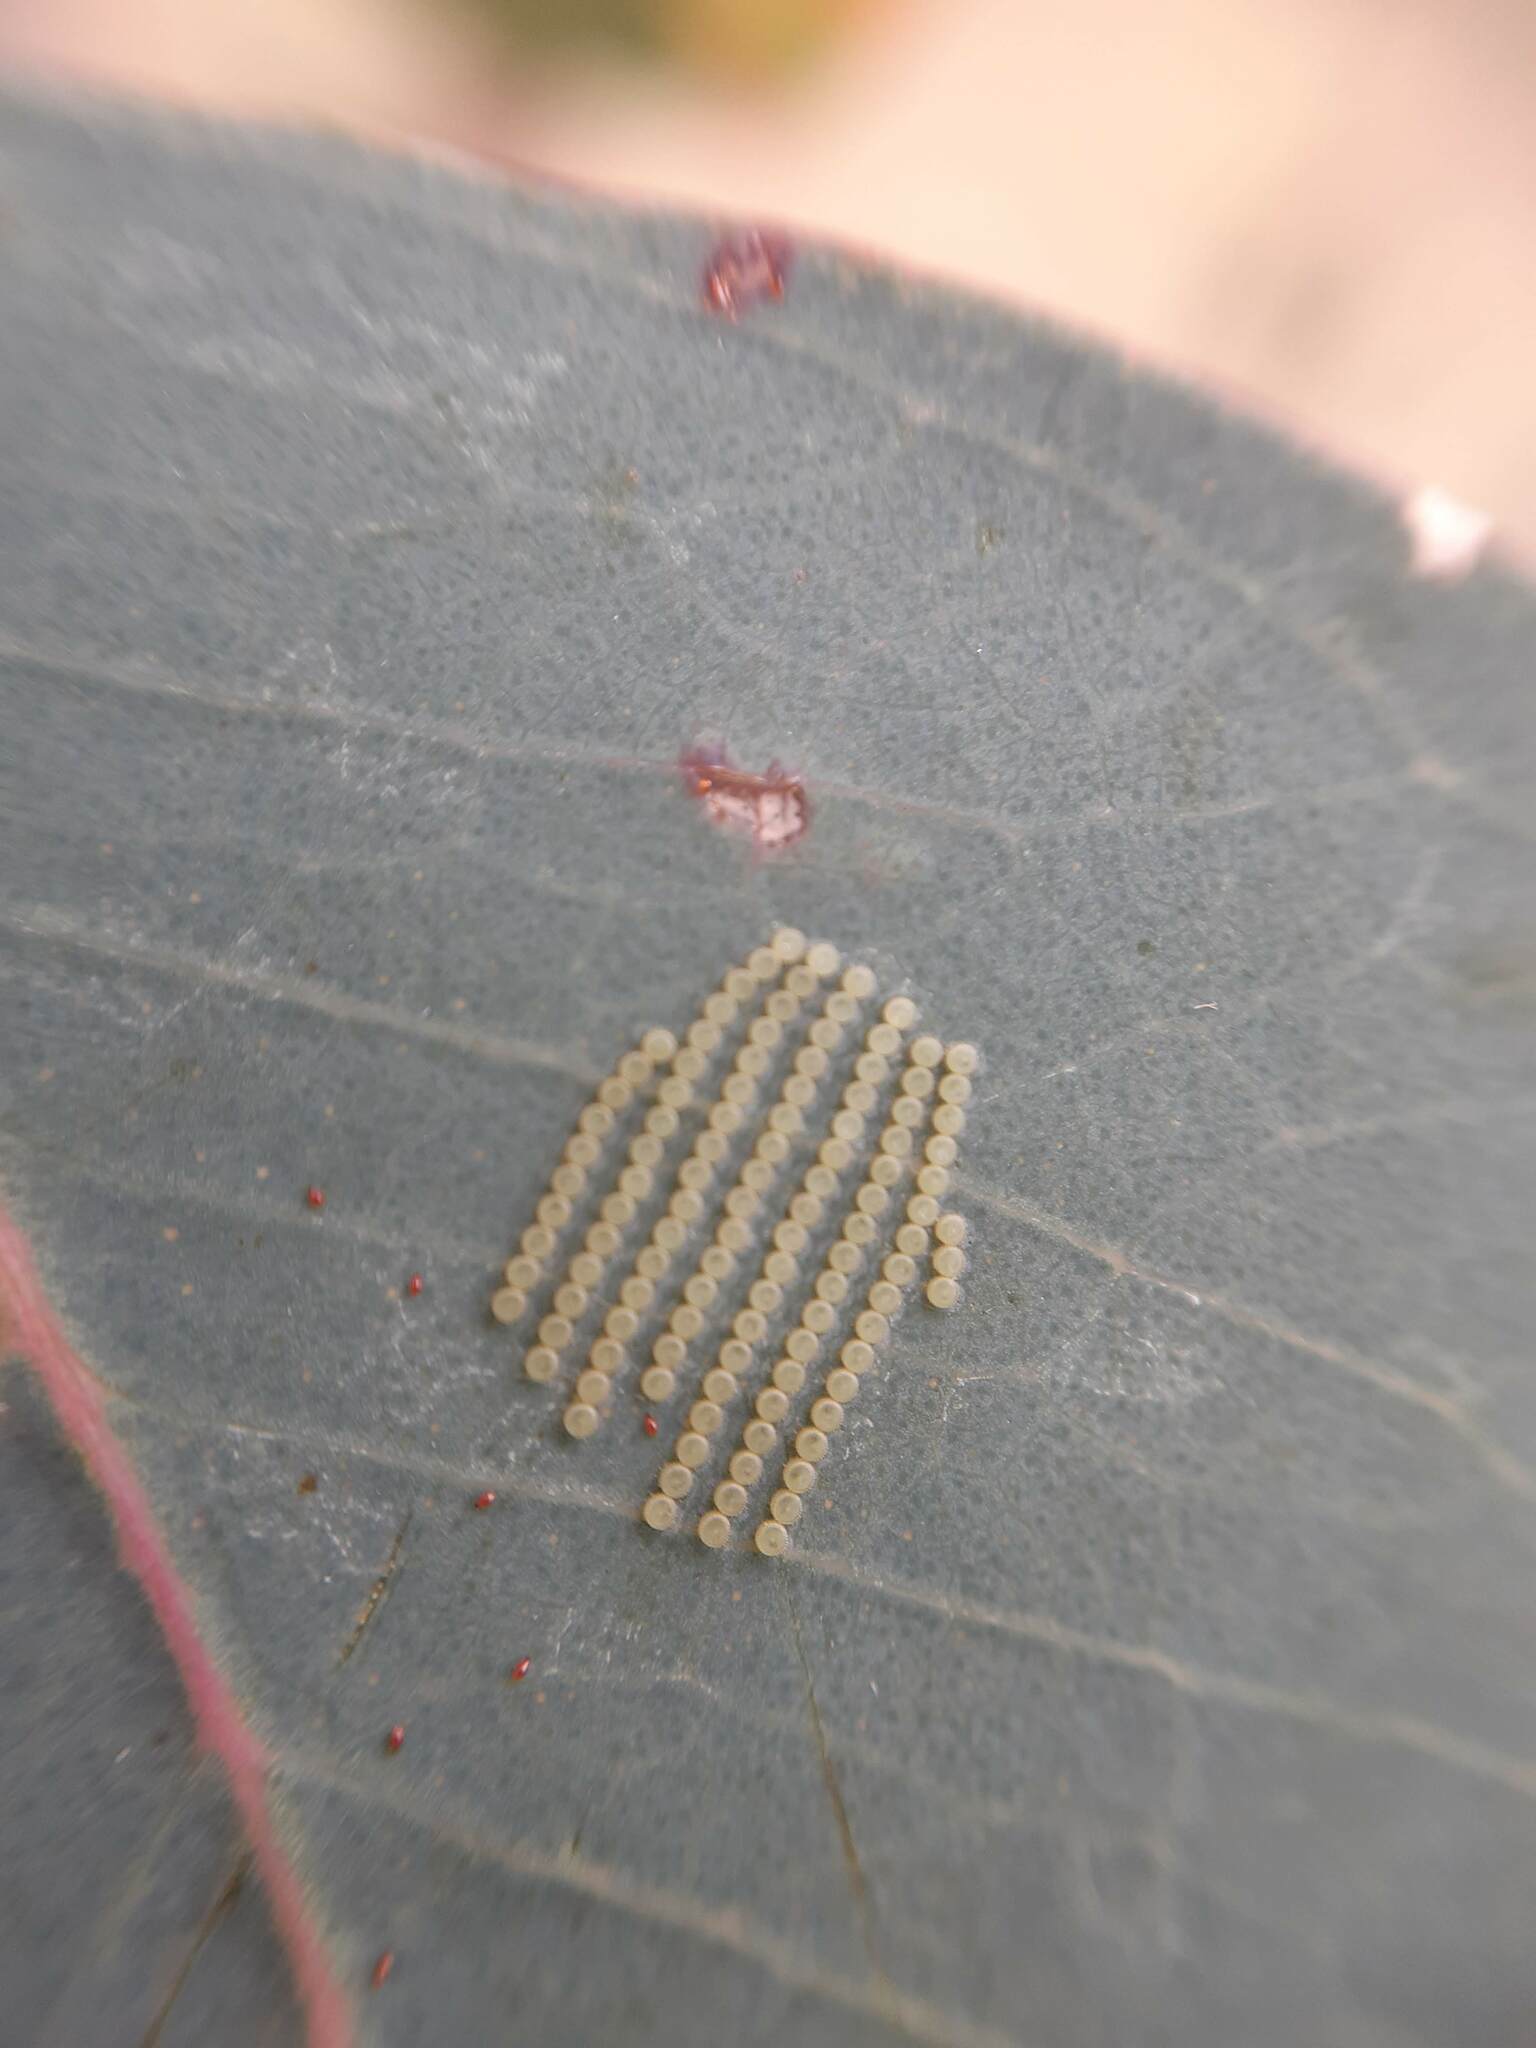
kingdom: Animalia
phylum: Arthropoda
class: Insecta
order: Lepidoptera
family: Nolidae
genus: Uraba
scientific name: Uraba lugens
